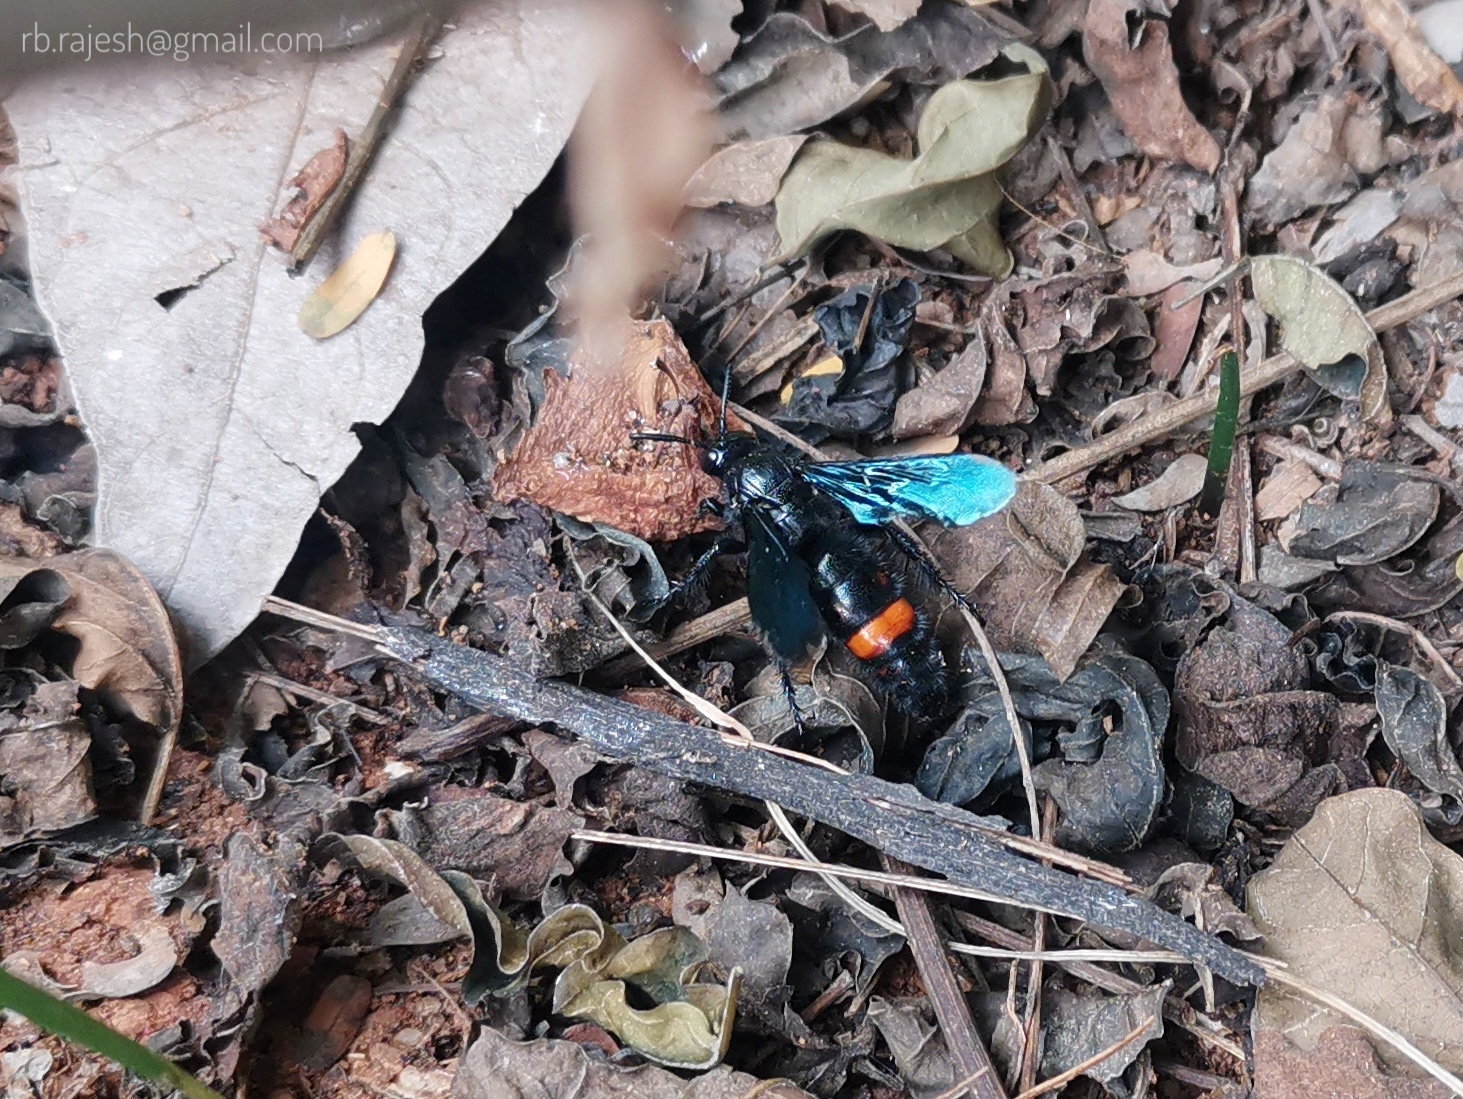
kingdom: Animalia
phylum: Arthropoda
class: Insecta
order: Hymenoptera
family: Scoliidae
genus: Scolia
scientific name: Scolia
